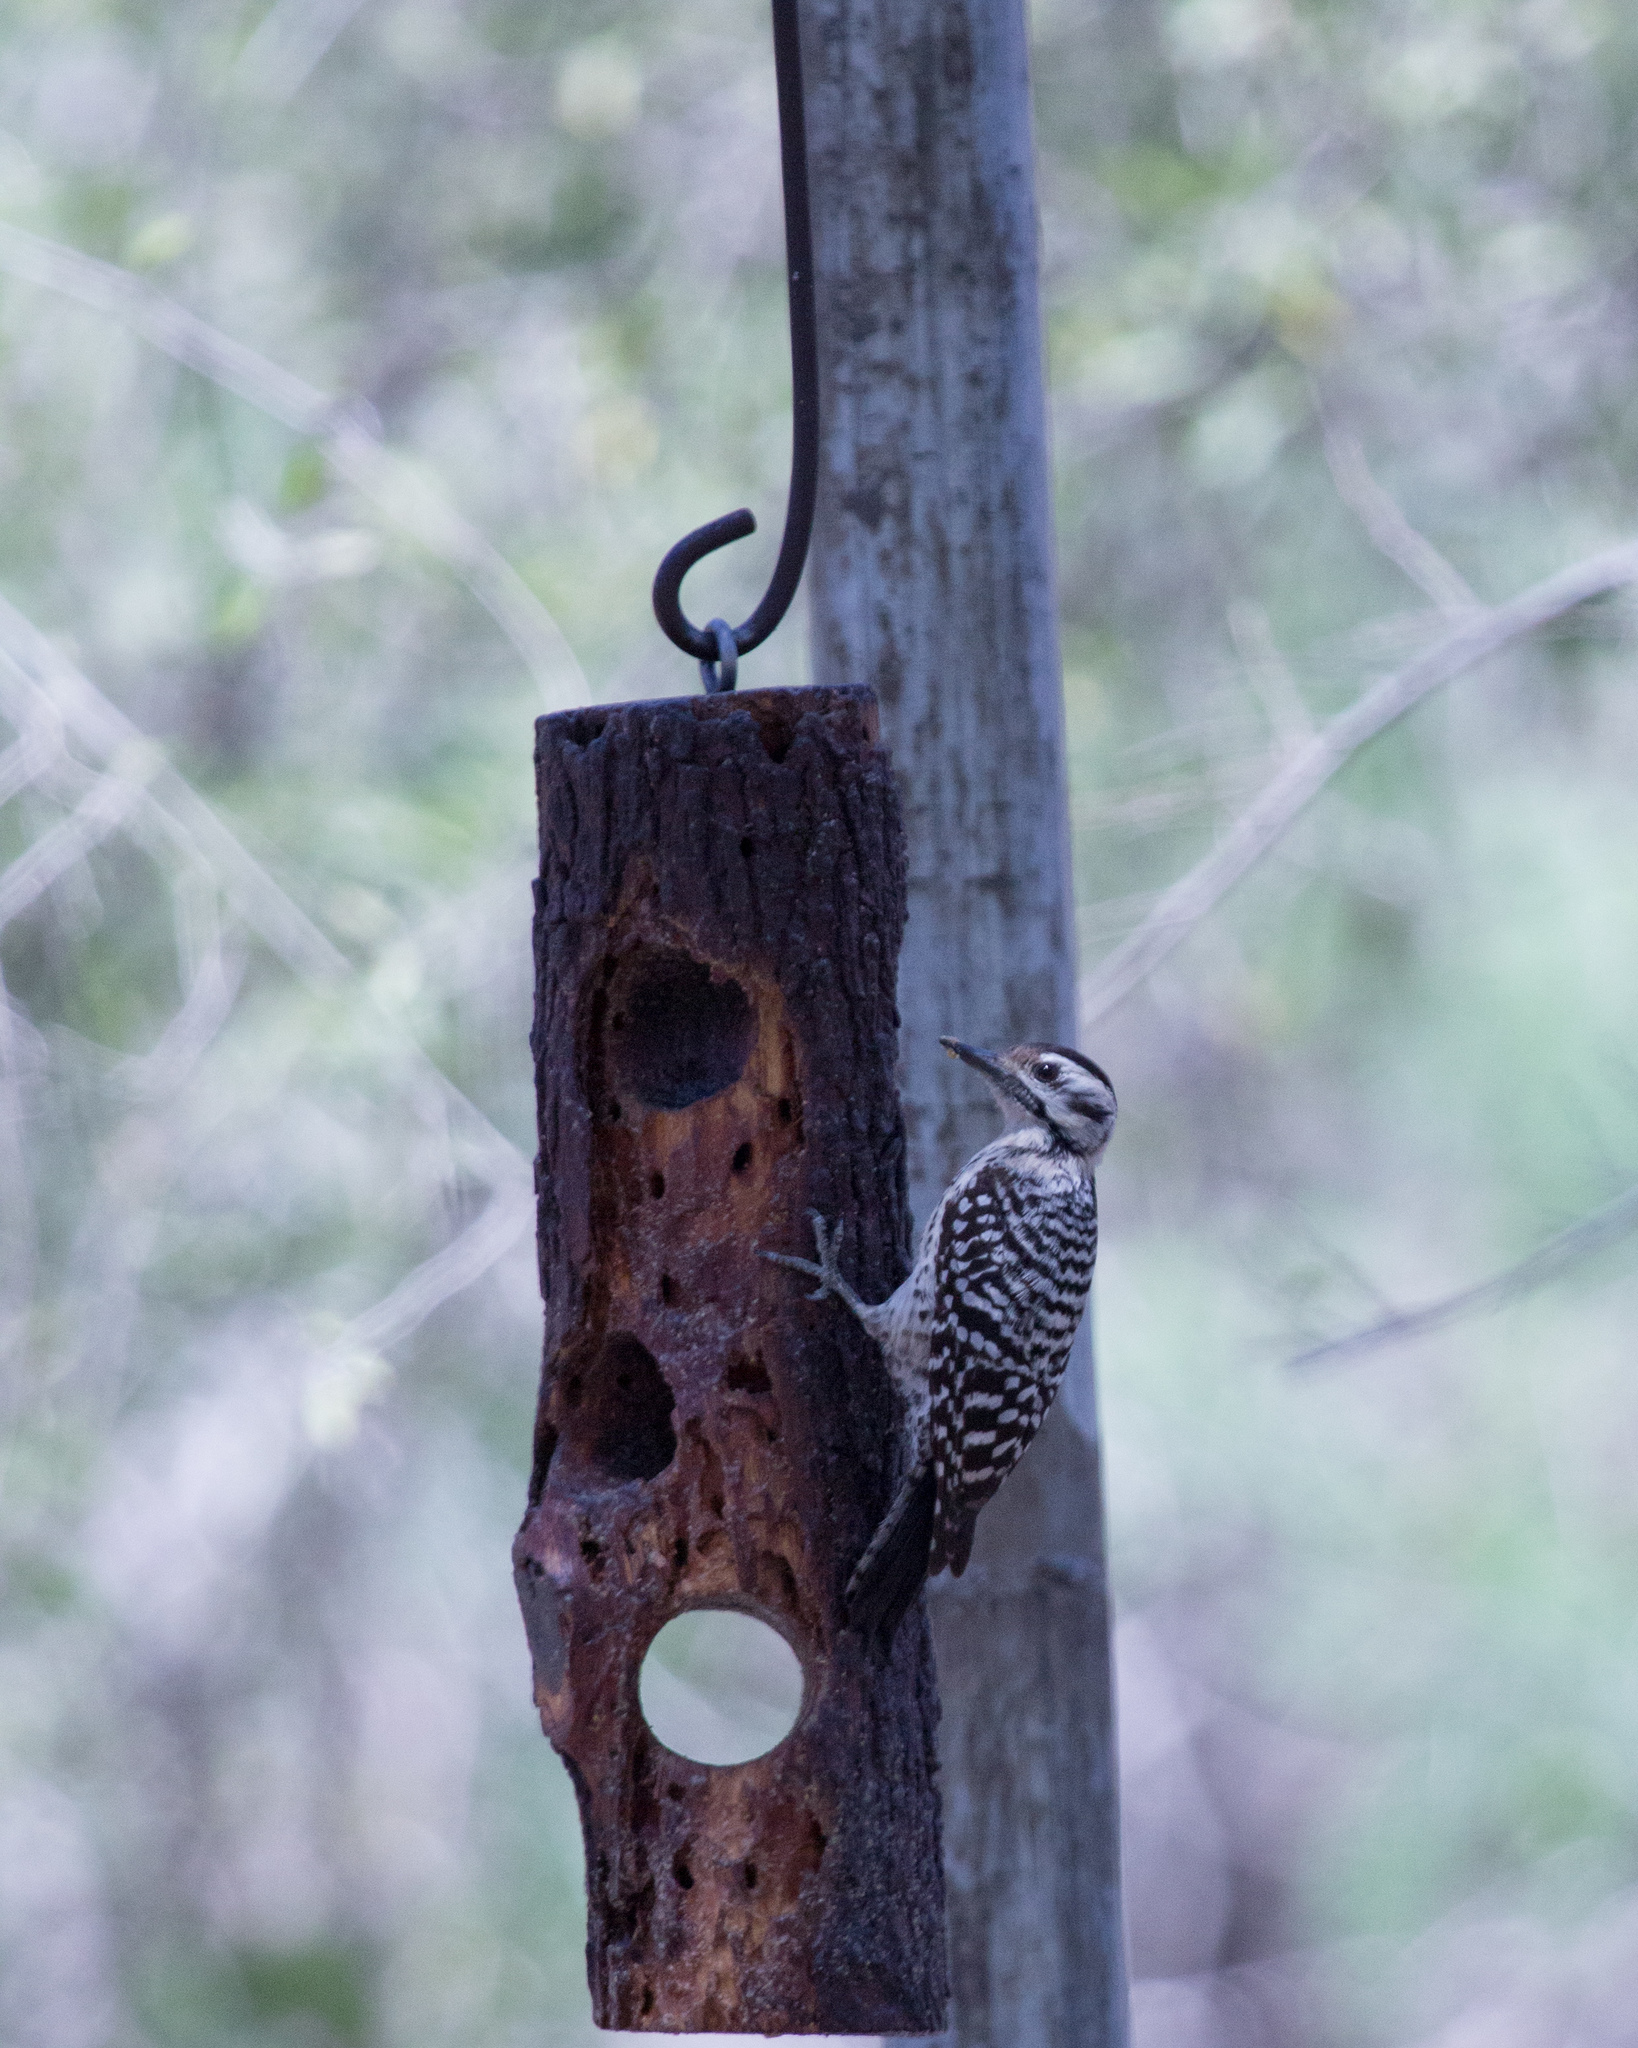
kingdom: Animalia
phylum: Chordata
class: Aves
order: Piciformes
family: Picidae
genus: Dryobates
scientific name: Dryobates scalaris
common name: Ladder-backed woodpecker
